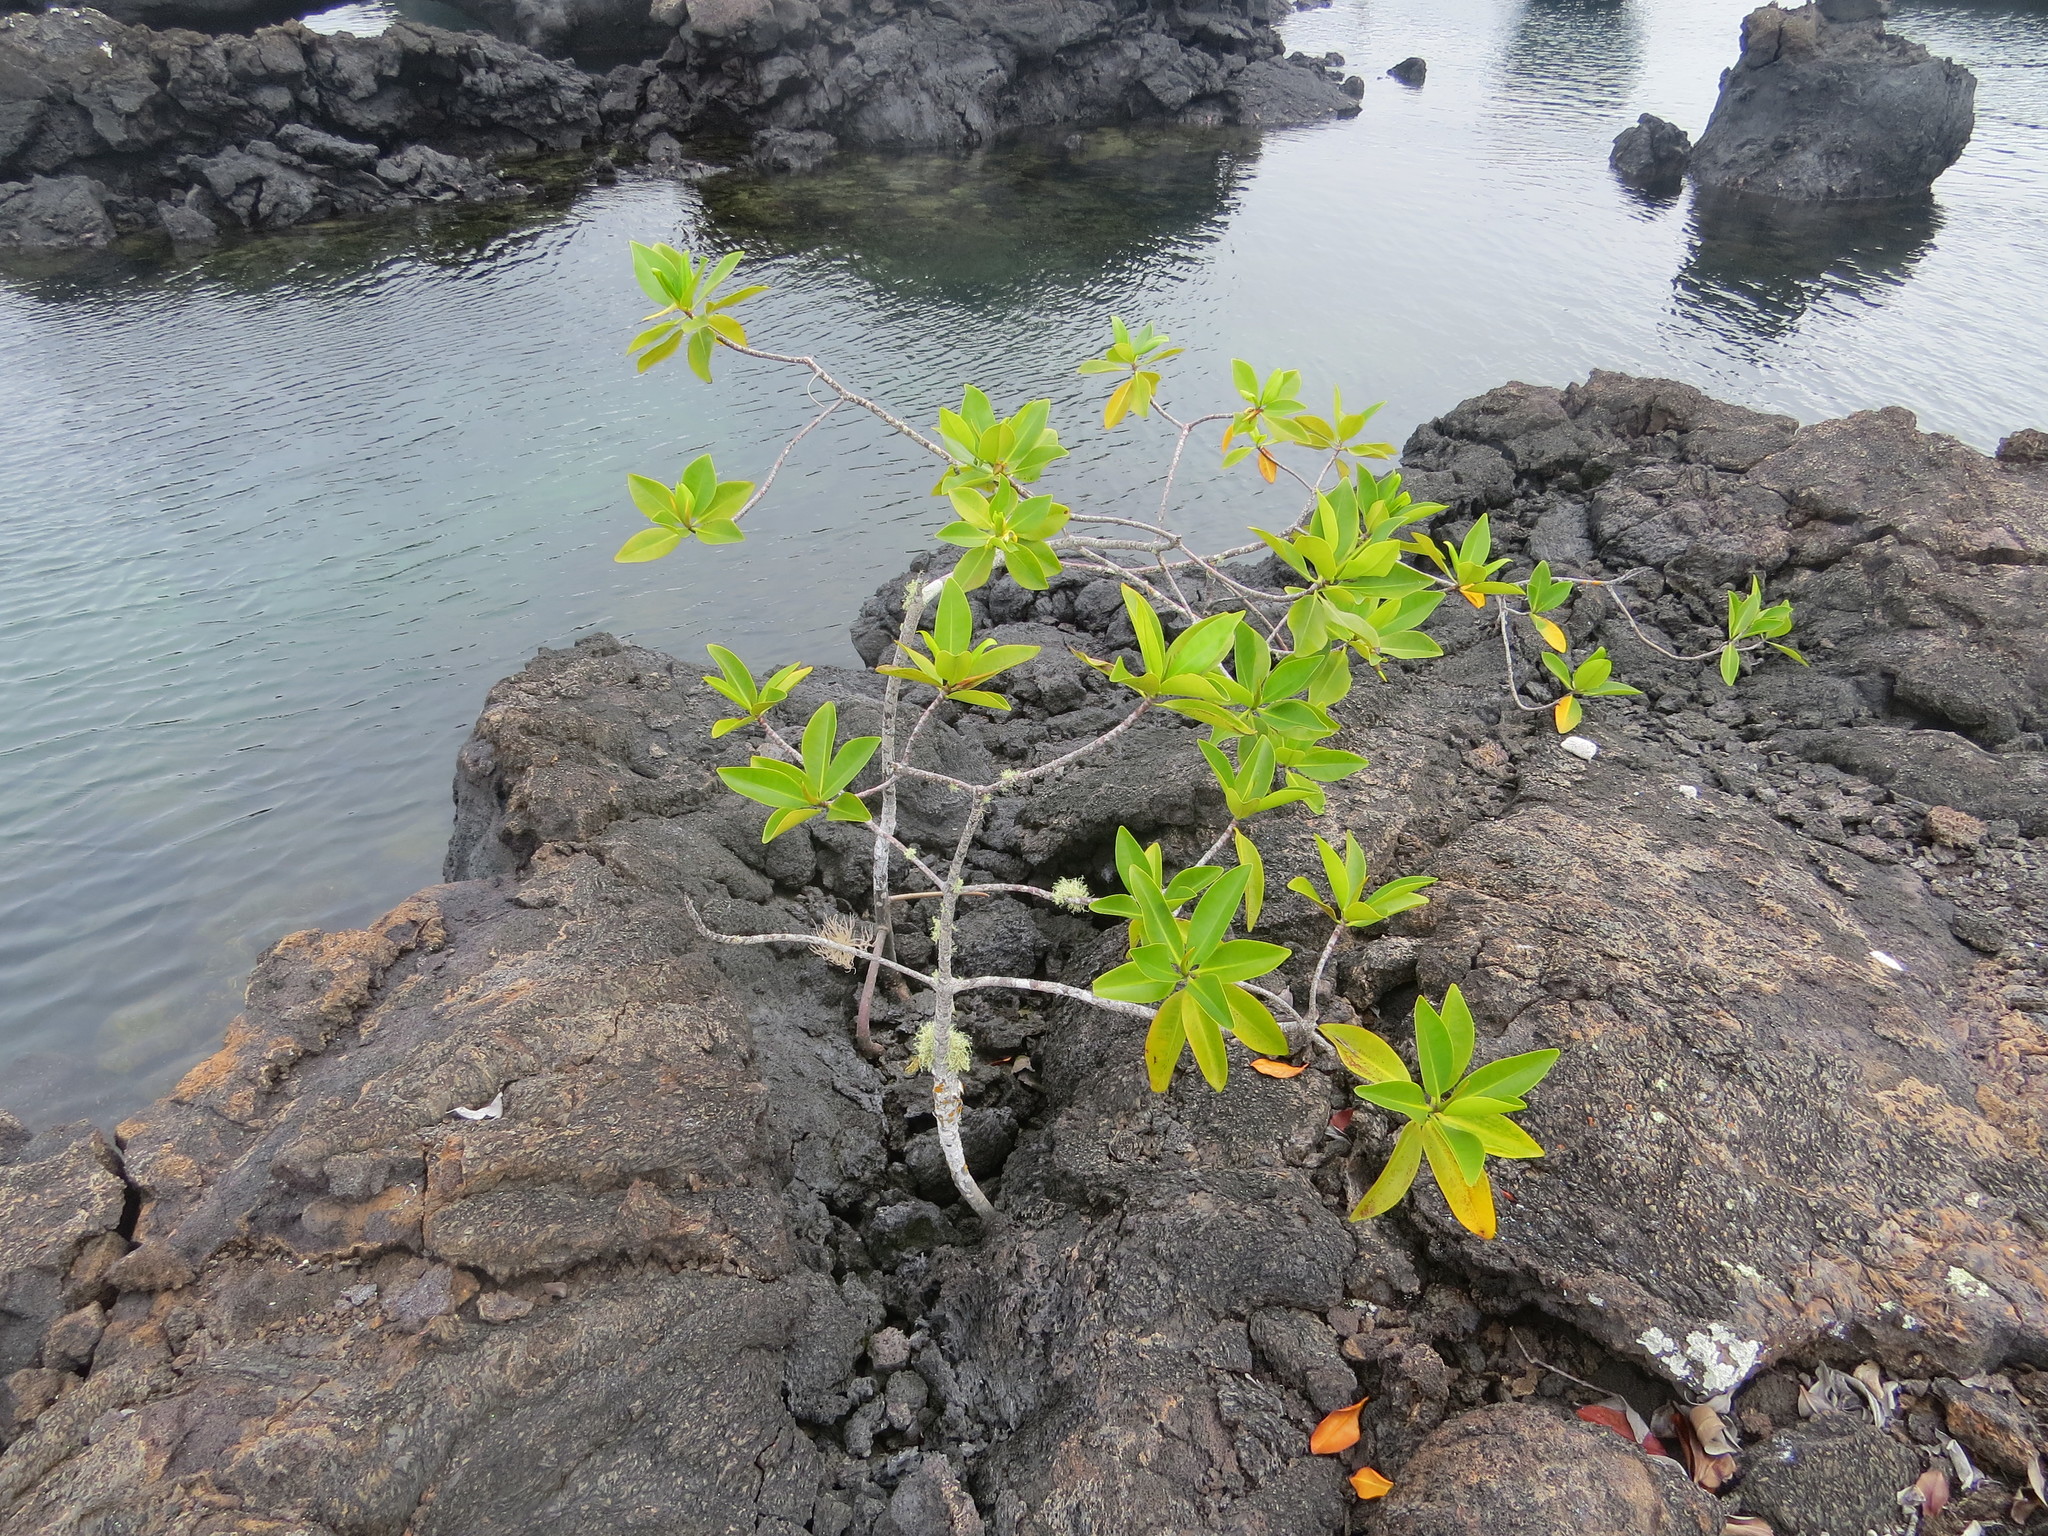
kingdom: Plantae
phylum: Tracheophyta
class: Magnoliopsida
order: Malpighiales
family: Rhizophoraceae
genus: Rhizophora
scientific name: Rhizophora mangle
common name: Red mangrove
